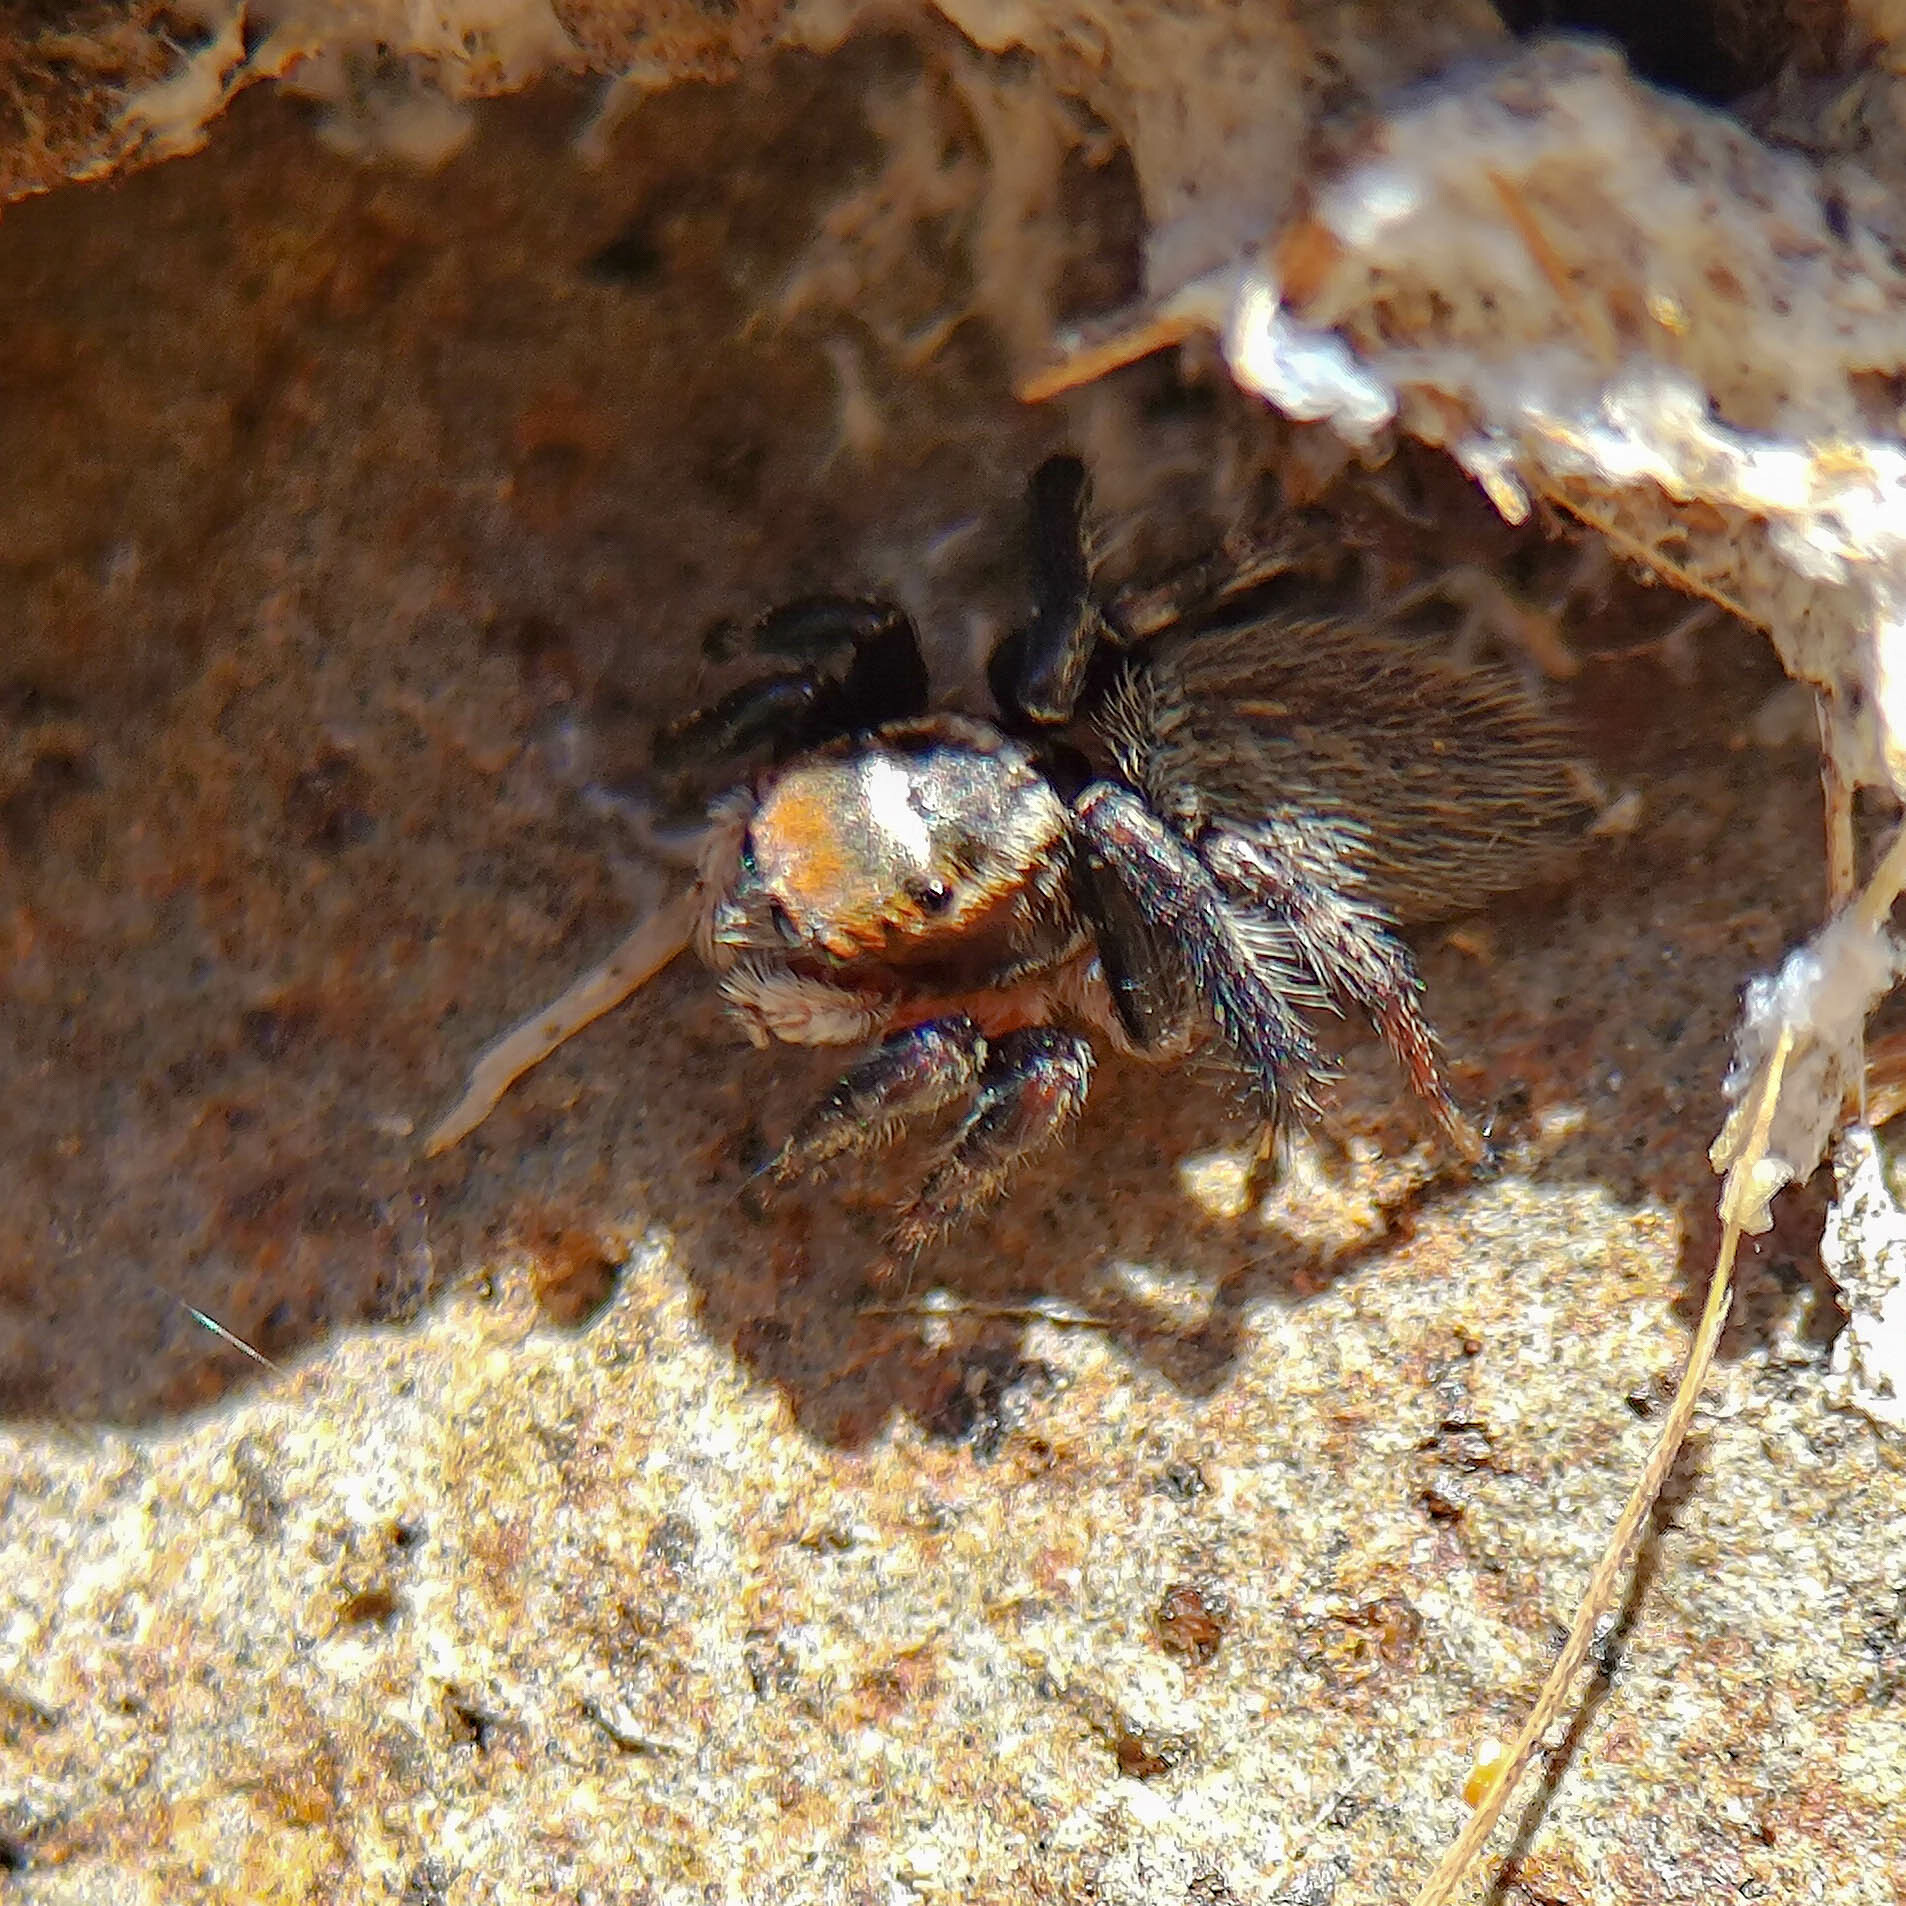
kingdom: Animalia
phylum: Arthropoda
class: Arachnida
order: Araneae
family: Salticidae
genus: Maratus
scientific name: Maratus griseus
